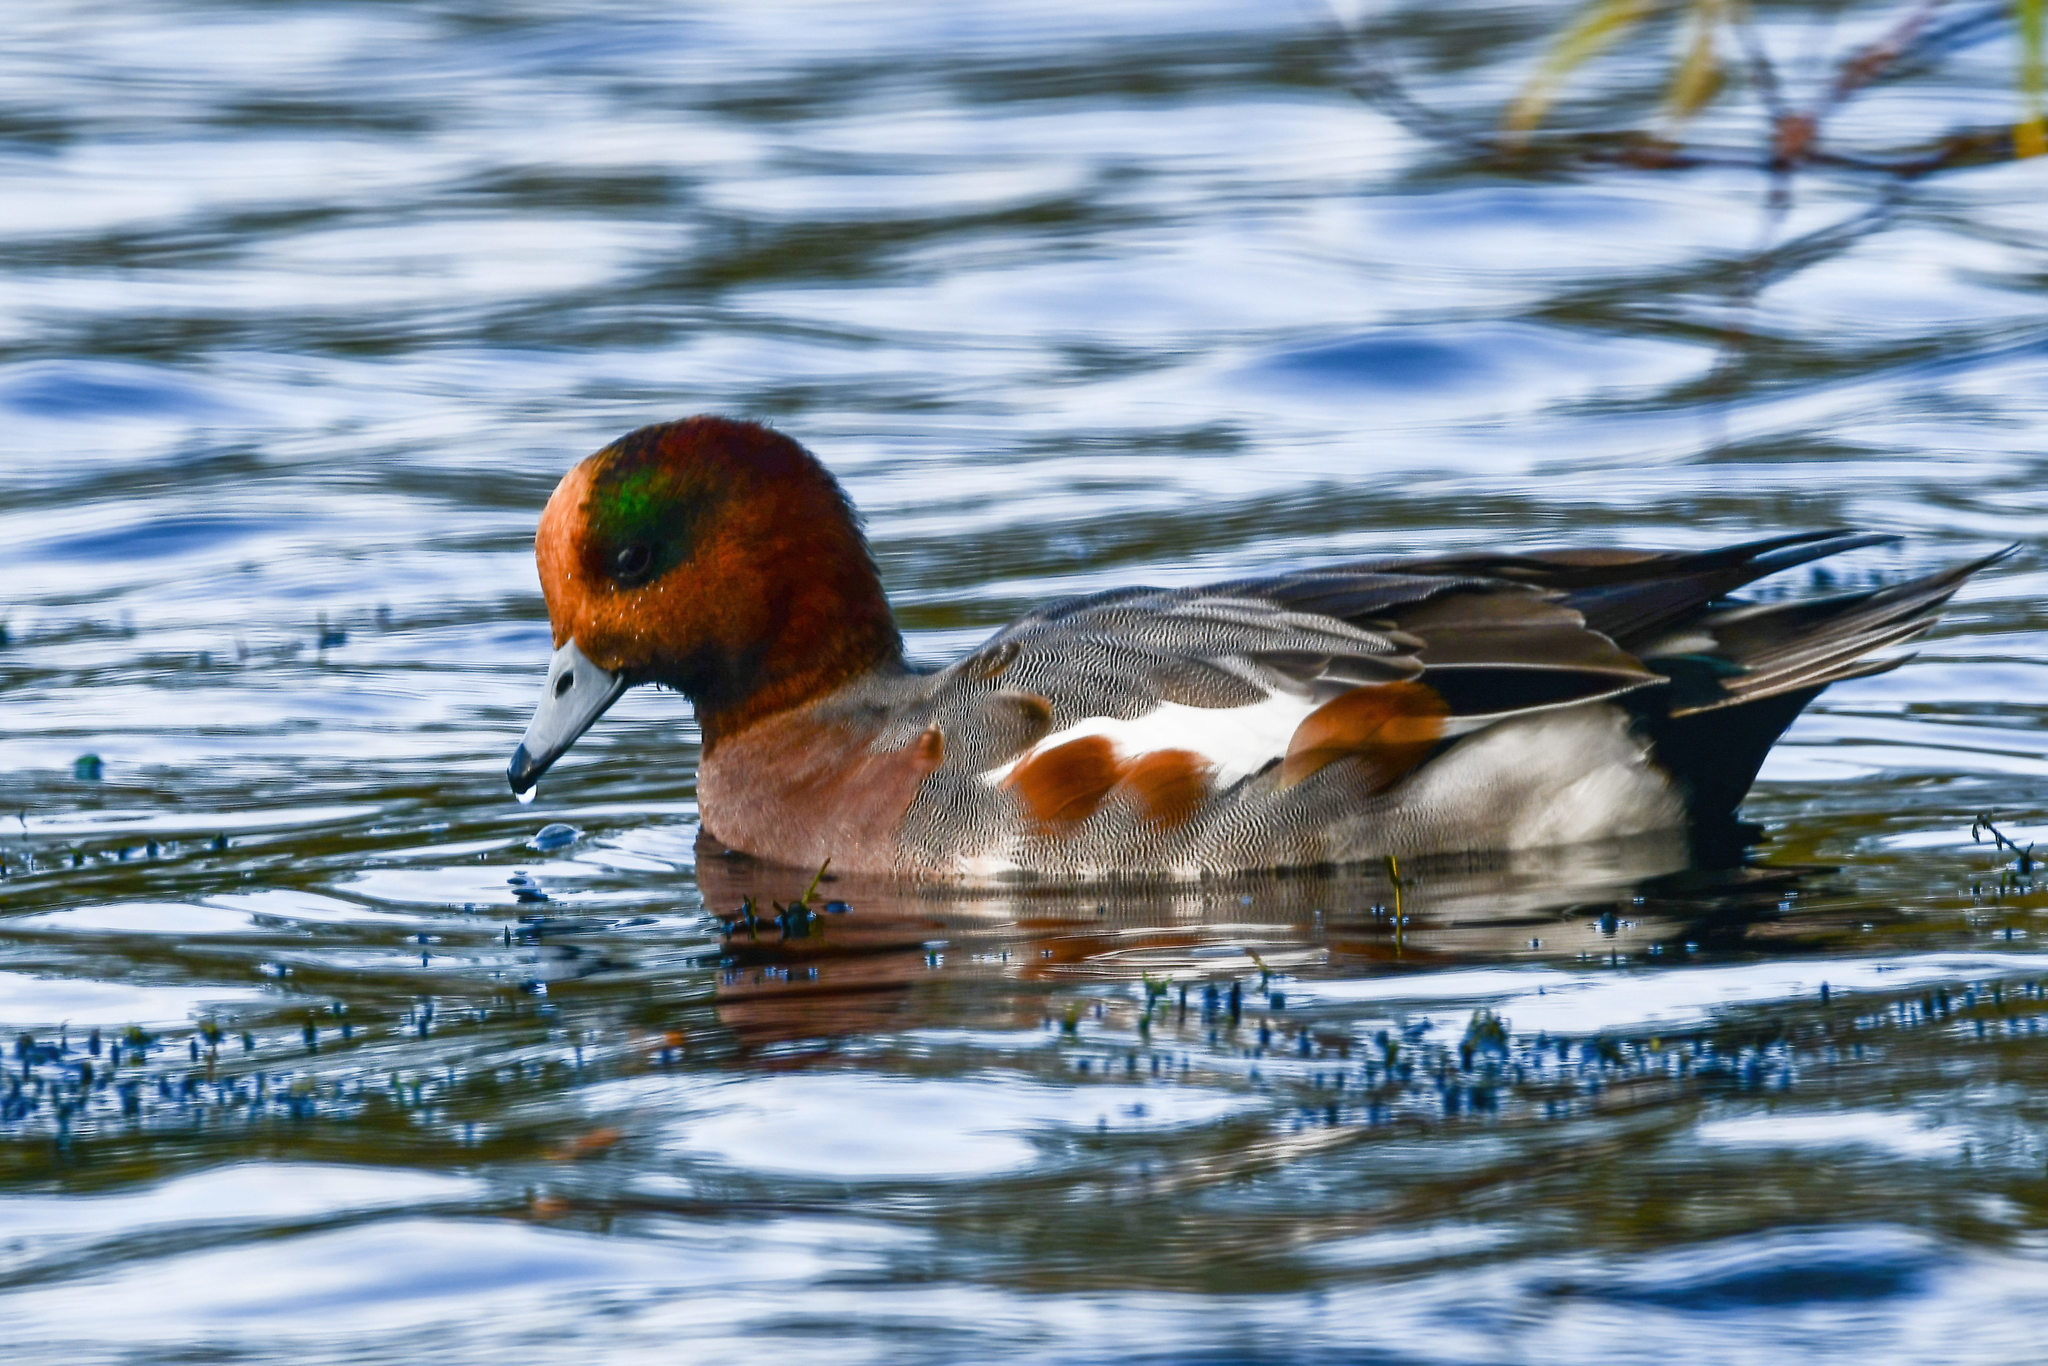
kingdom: Animalia
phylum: Chordata
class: Aves
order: Anseriformes
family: Anatidae
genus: Mareca
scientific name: Mareca penelope
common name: Eurasian wigeon
